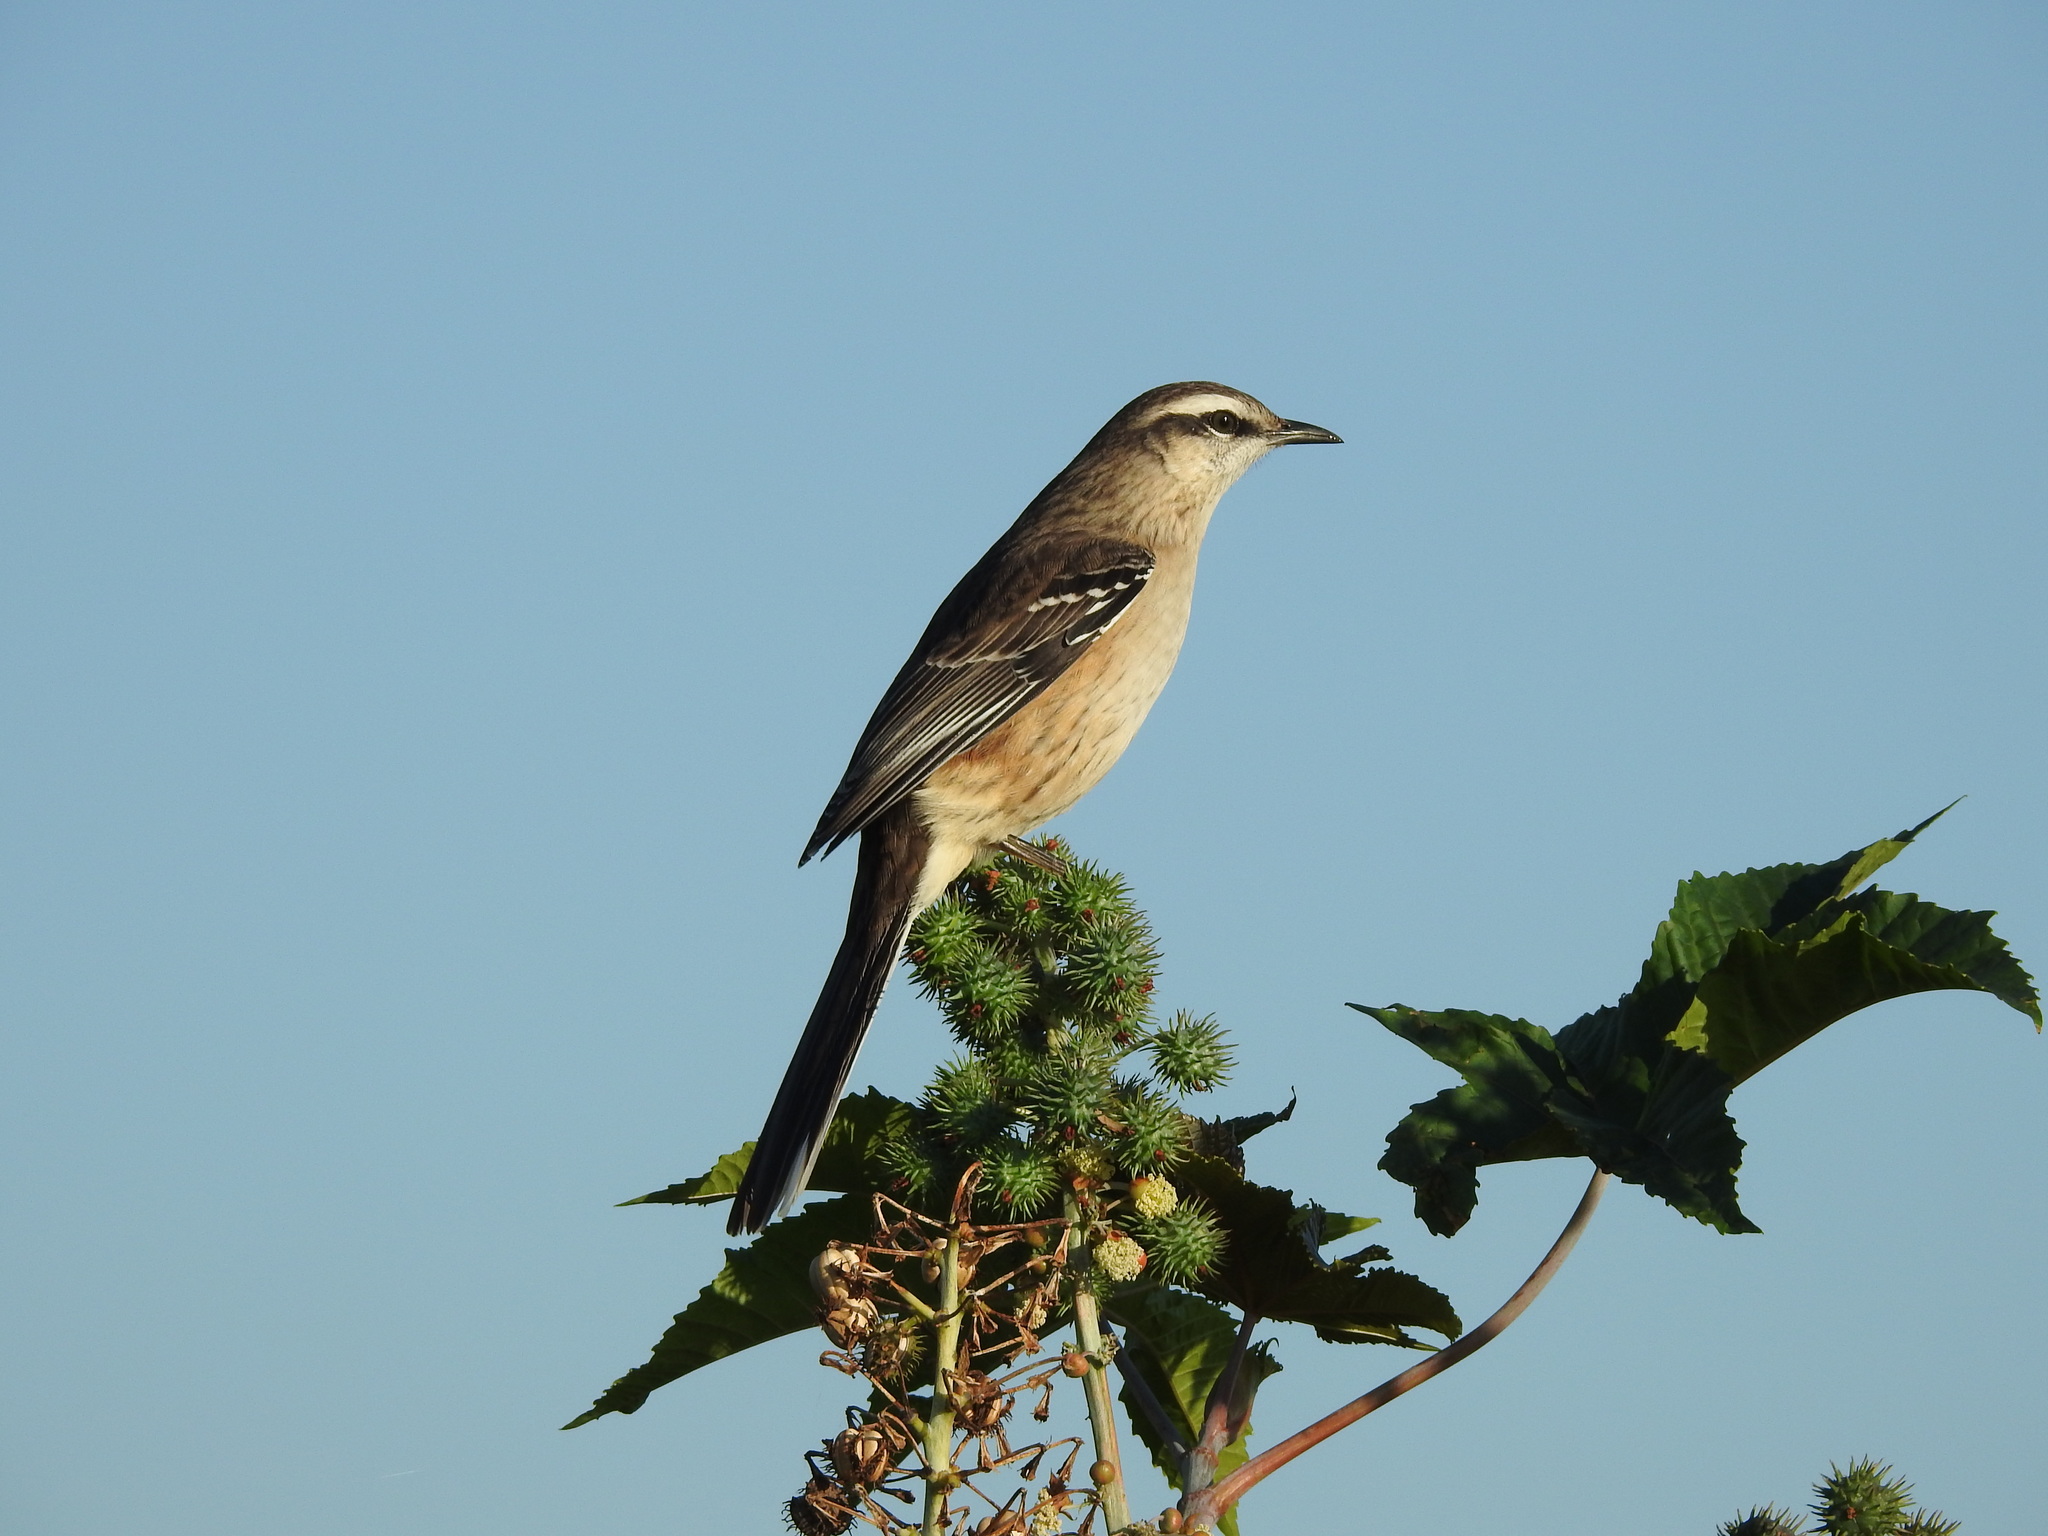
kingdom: Animalia
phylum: Chordata
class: Aves
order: Passeriformes
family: Mimidae
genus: Mimus
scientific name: Mimus saturninus
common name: Chalk-browed mockingbird
